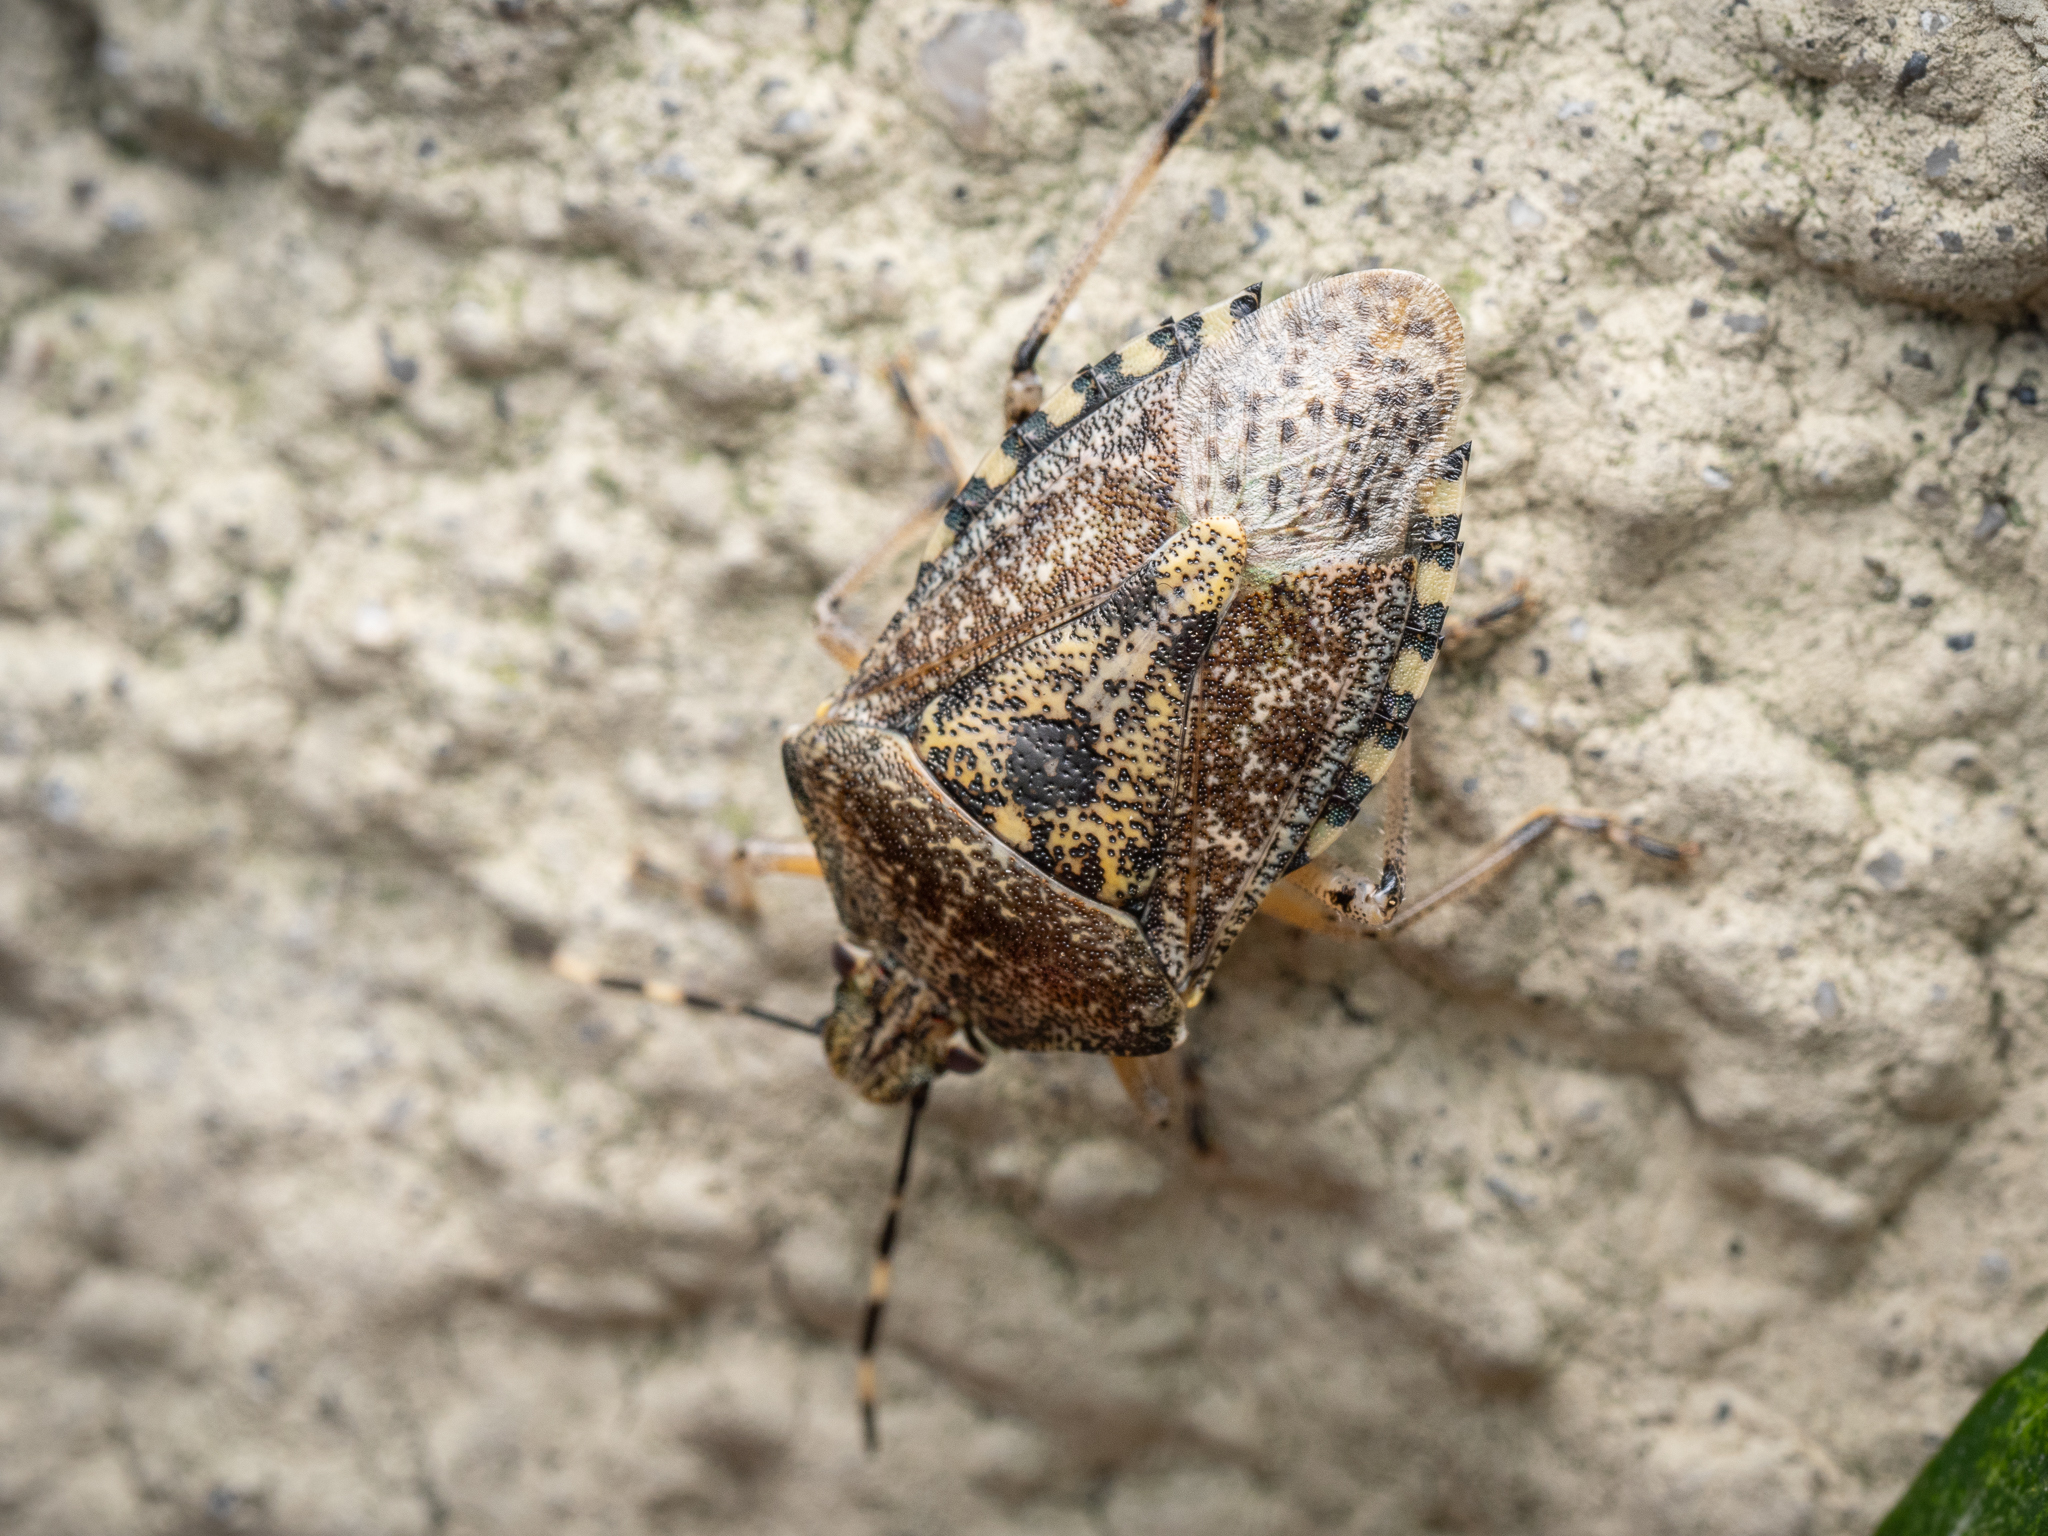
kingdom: Animalia
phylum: Arthropoda
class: Insecta
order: Hemiptera
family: Pentatomidae
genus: Rhaphigaster
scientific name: Rhaphigaster nebulosa
